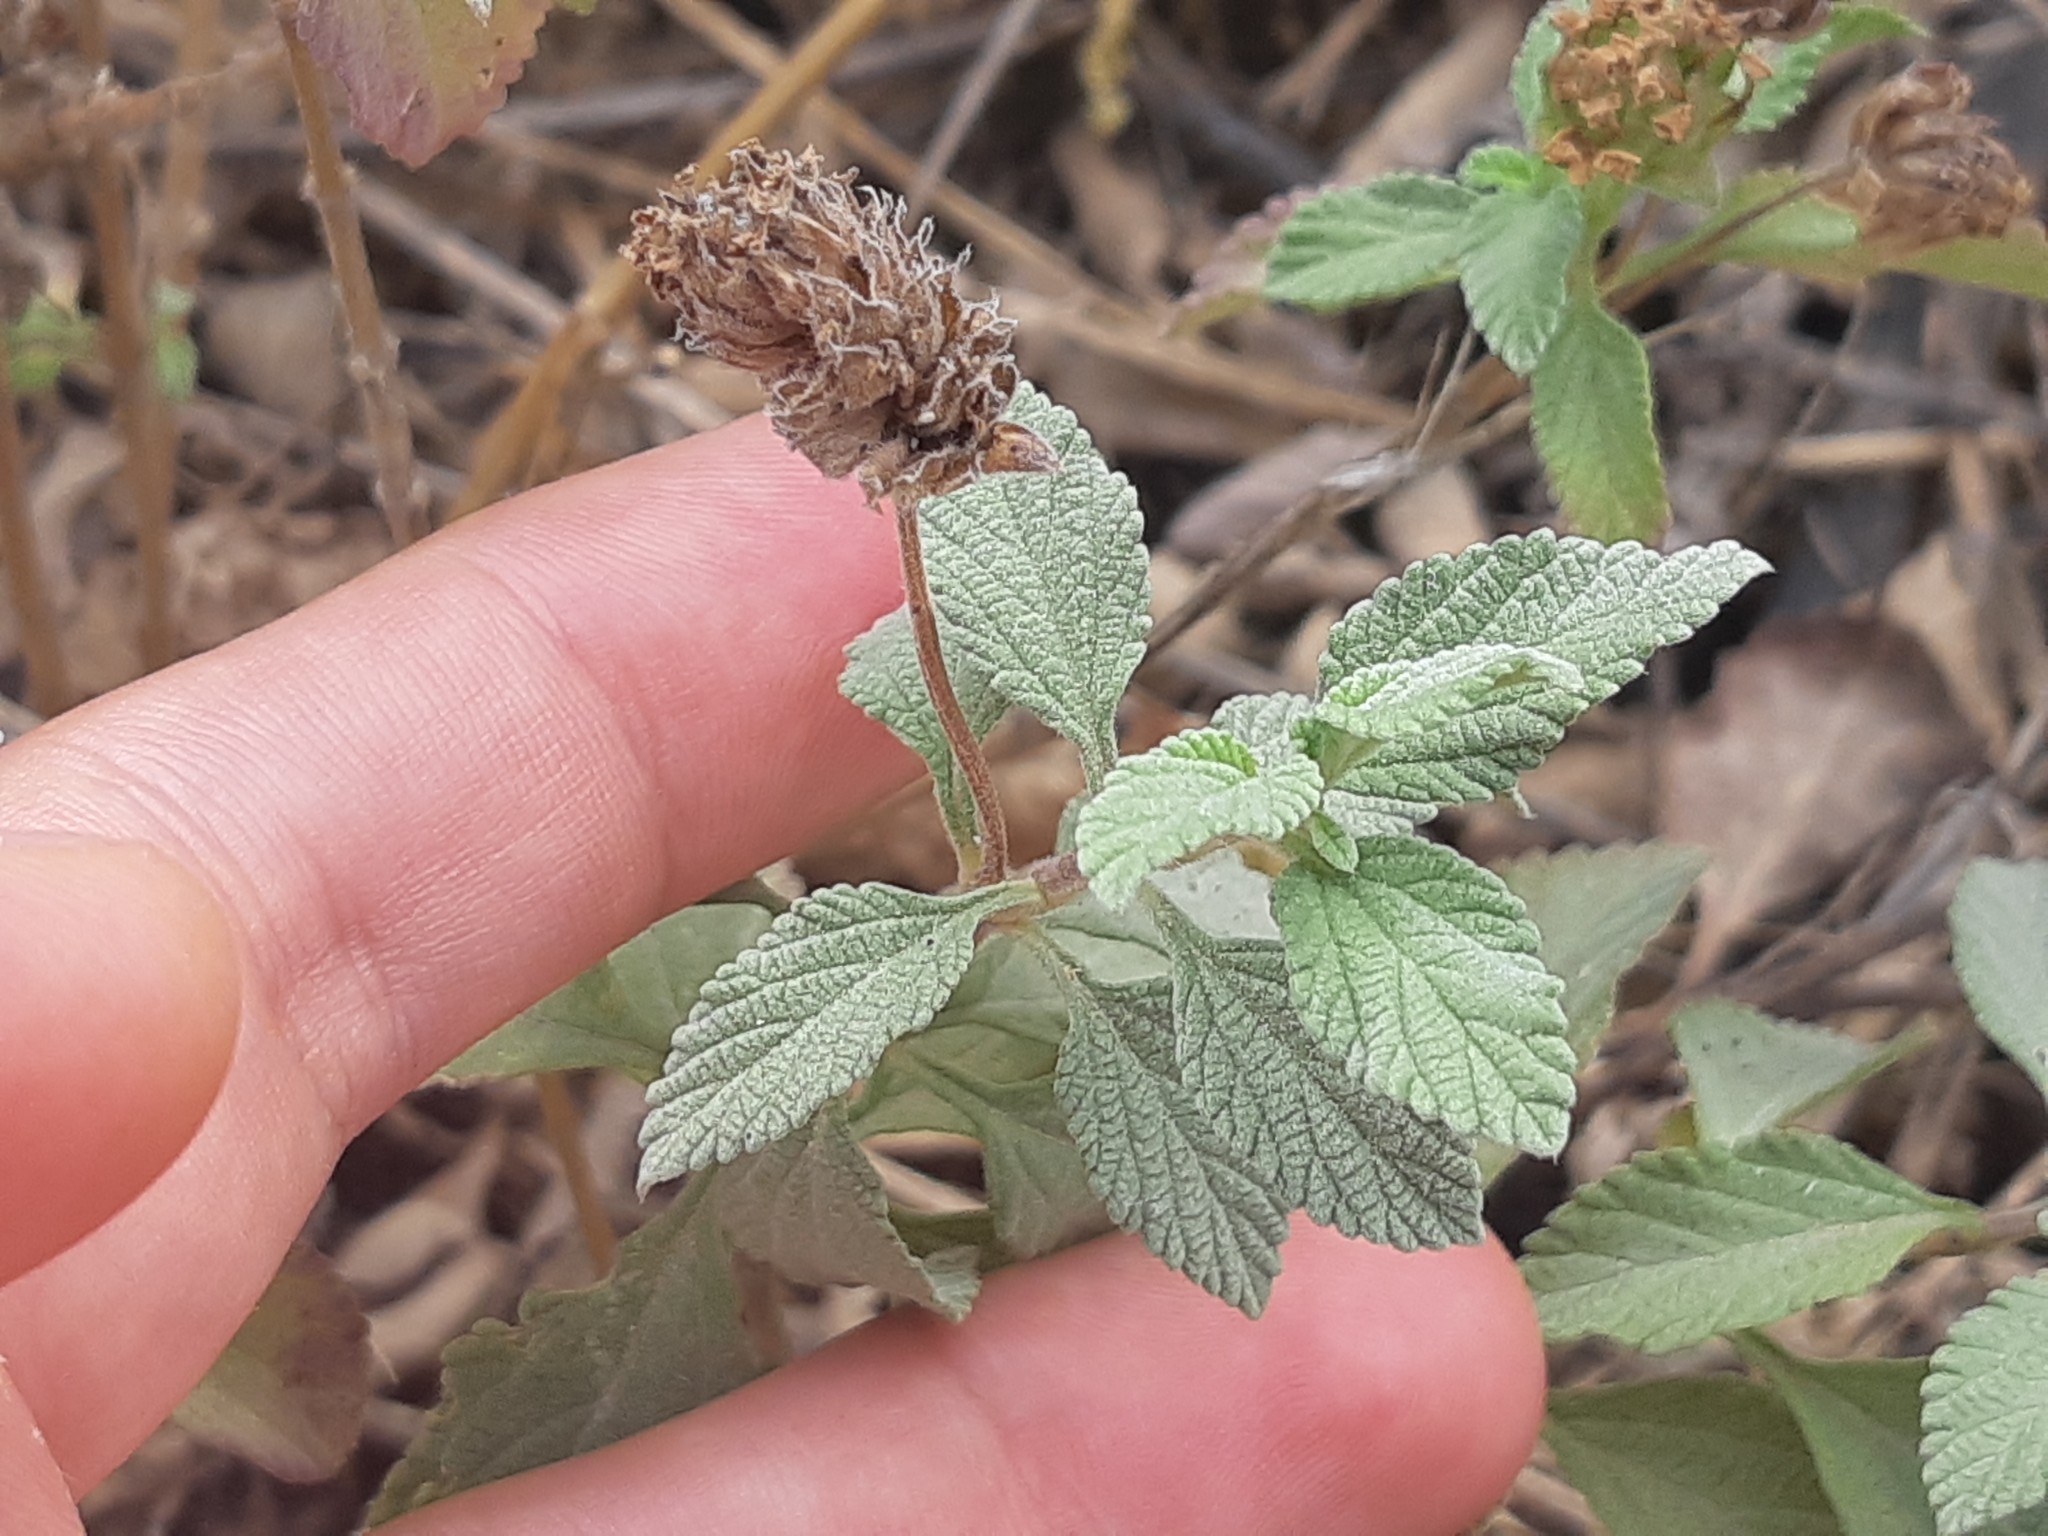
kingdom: Plantae
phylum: Tracheophyta
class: Magnoliopsida
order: Lamiales
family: Verbenaceae
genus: Lantana
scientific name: Lantana velutina
